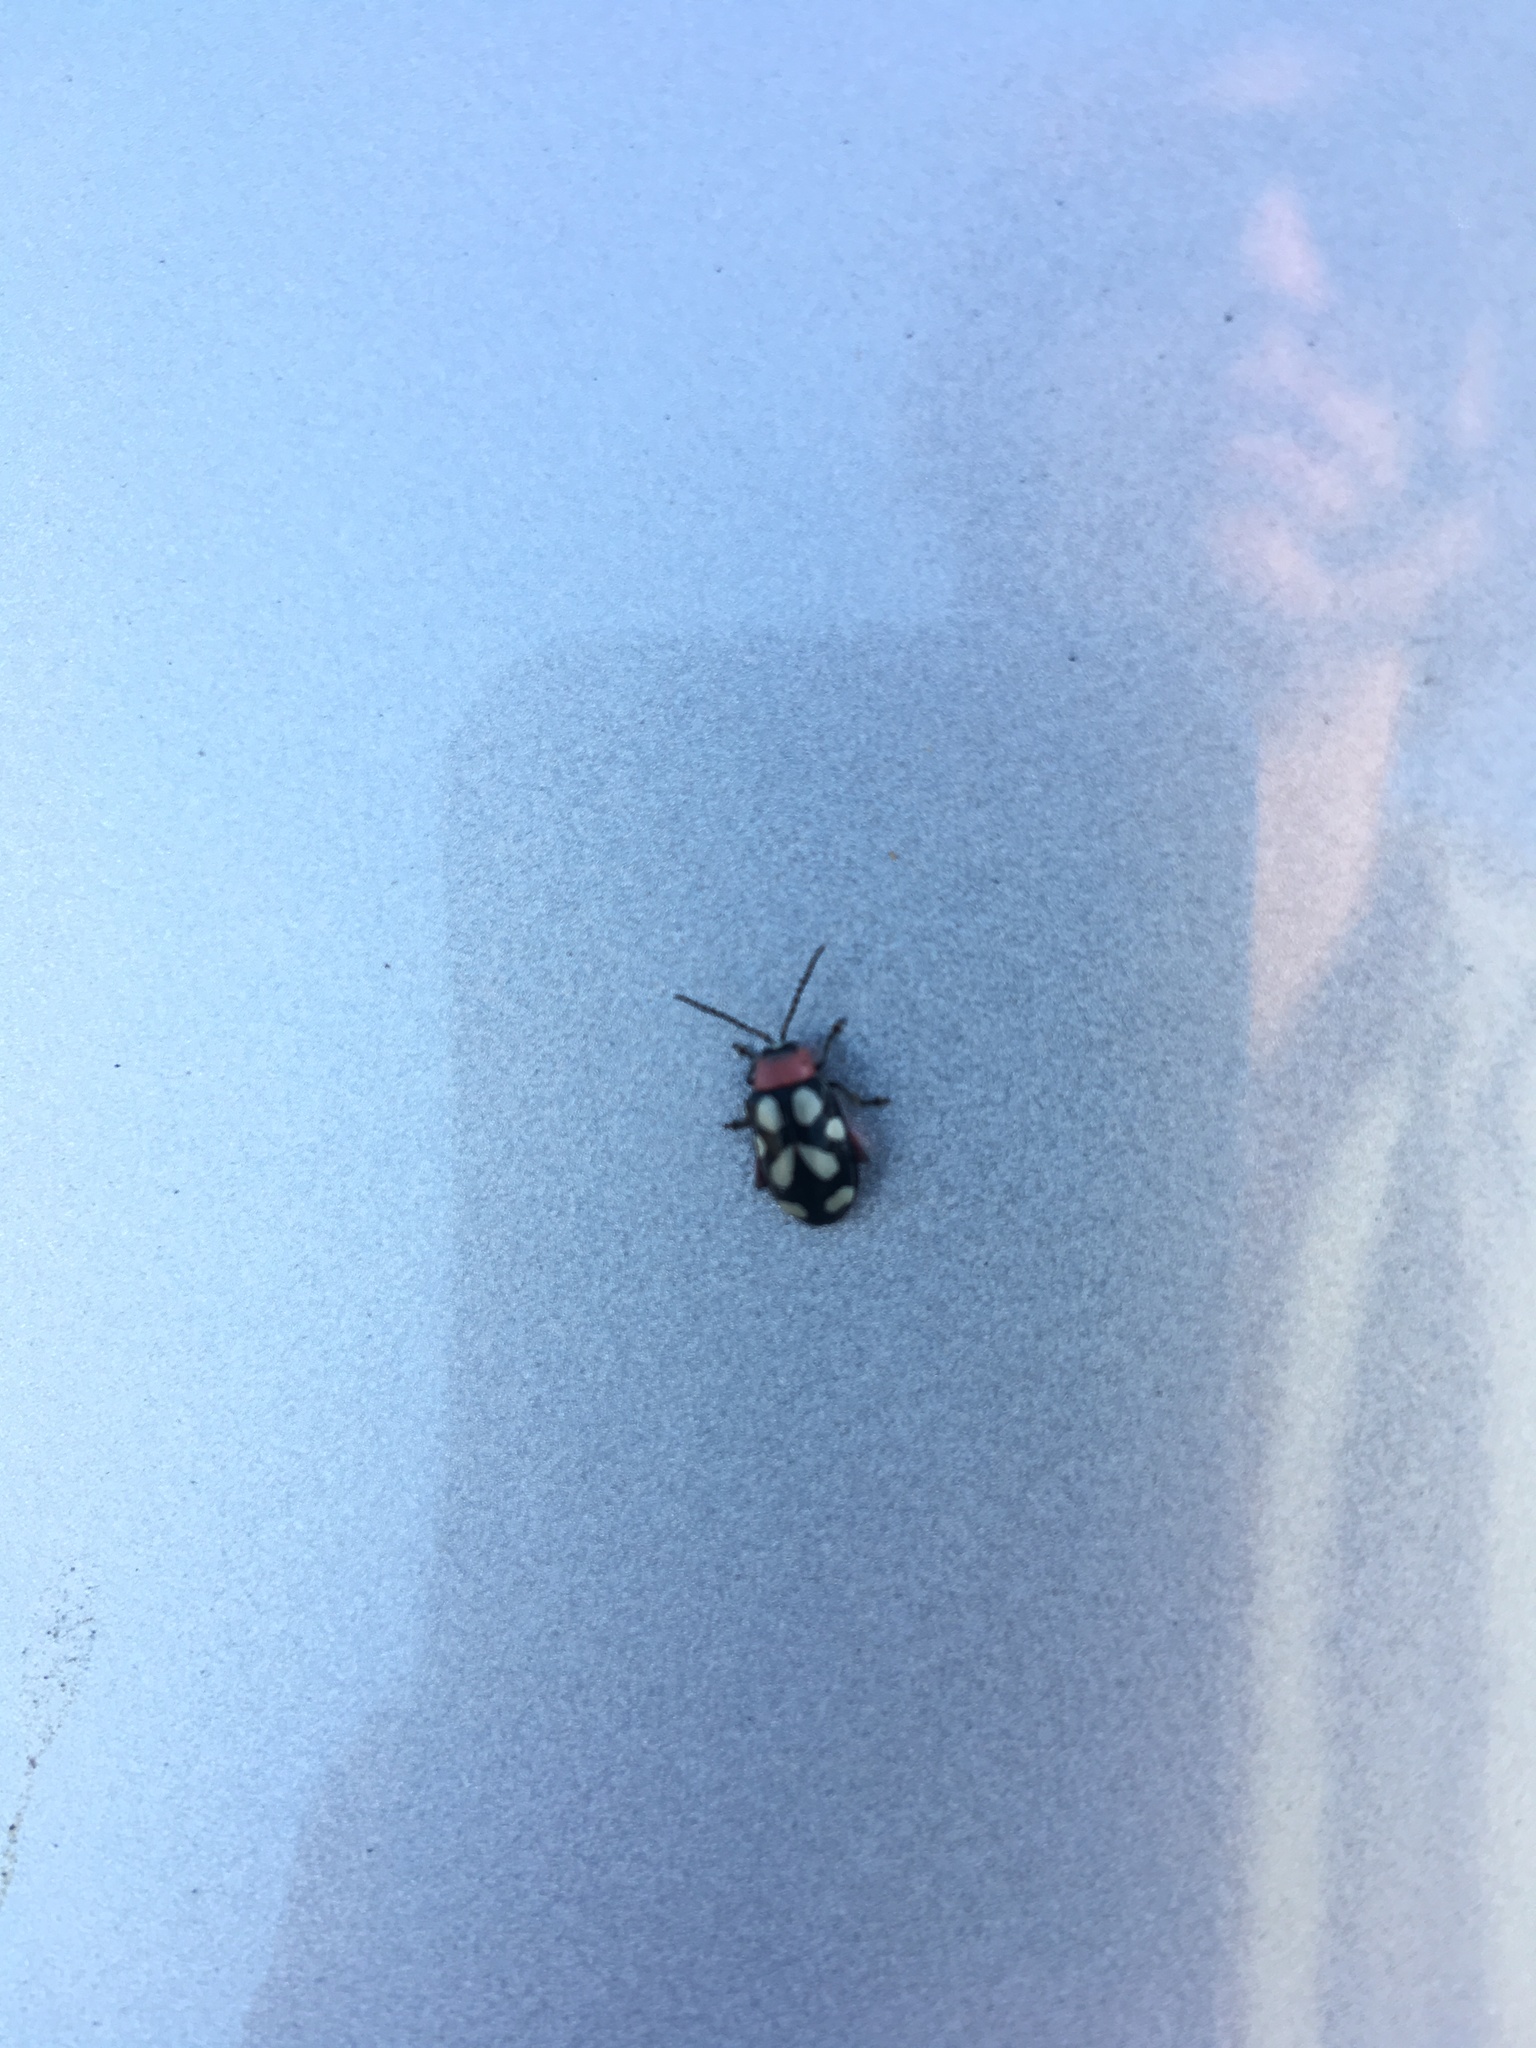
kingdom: Animalia
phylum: Arthropoda
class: Insecta
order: Coleoptera
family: Chrysomelidae
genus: Omophoita
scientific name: Omophoita cyanipennis
